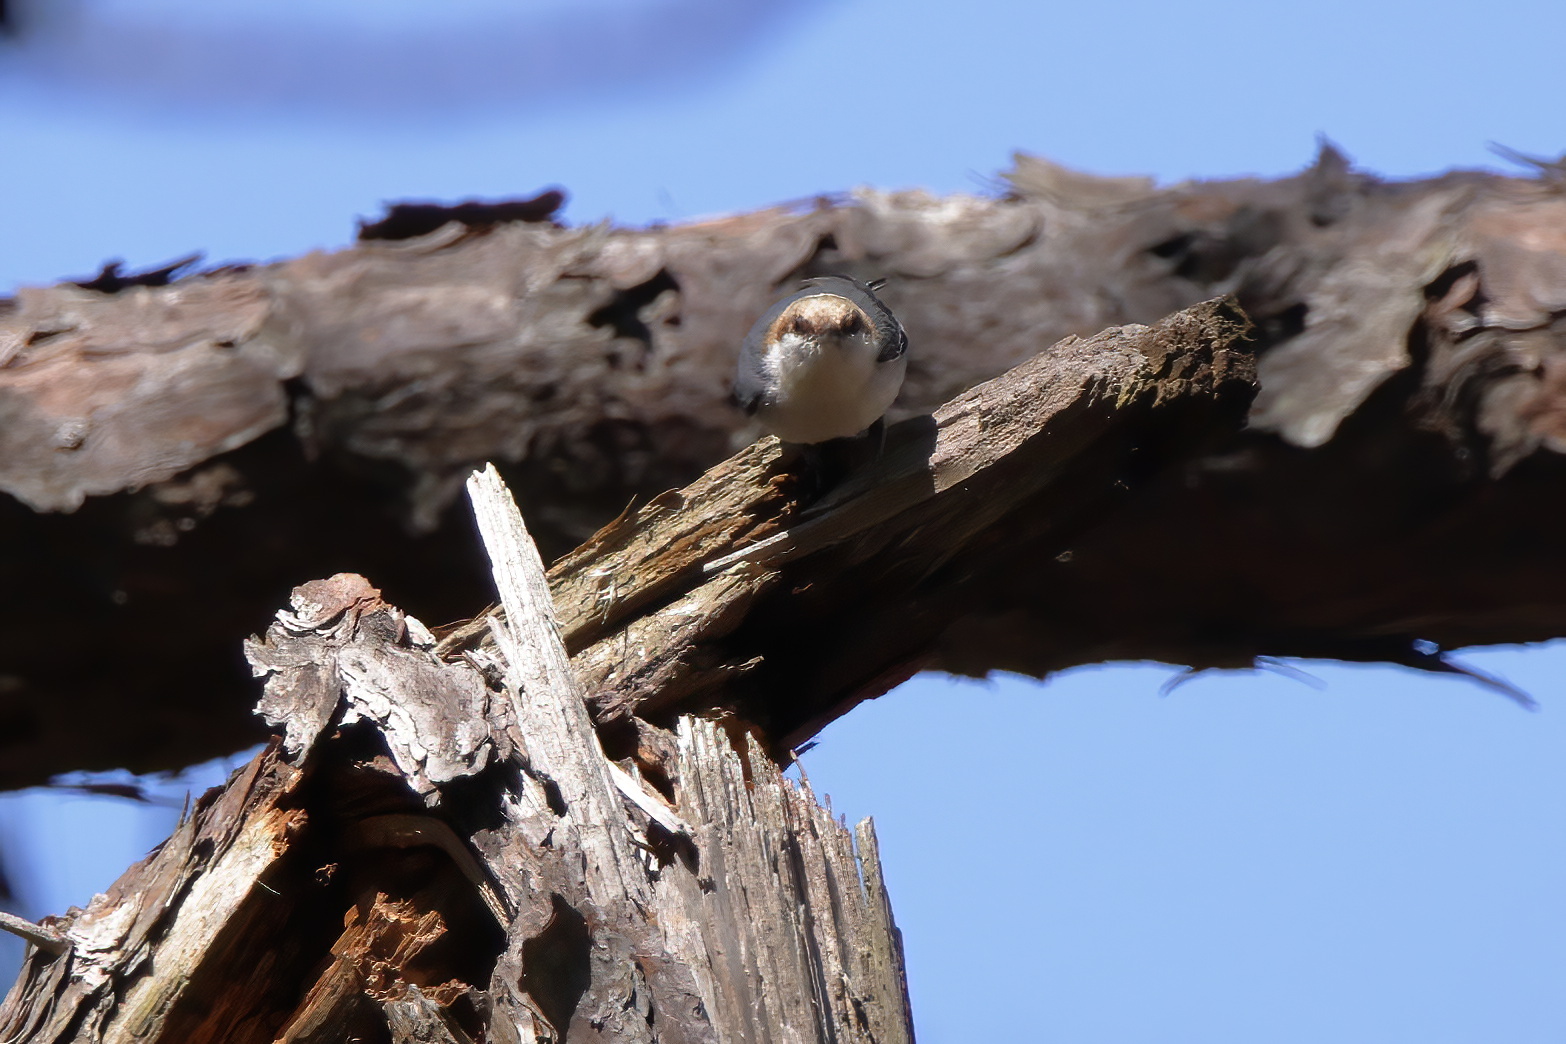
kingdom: Animalia
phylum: Chordata
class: Aves
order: Passeriformes
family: Sittidae
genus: Sitta
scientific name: Sitta pusilla
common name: Brown-headed nuthatch
